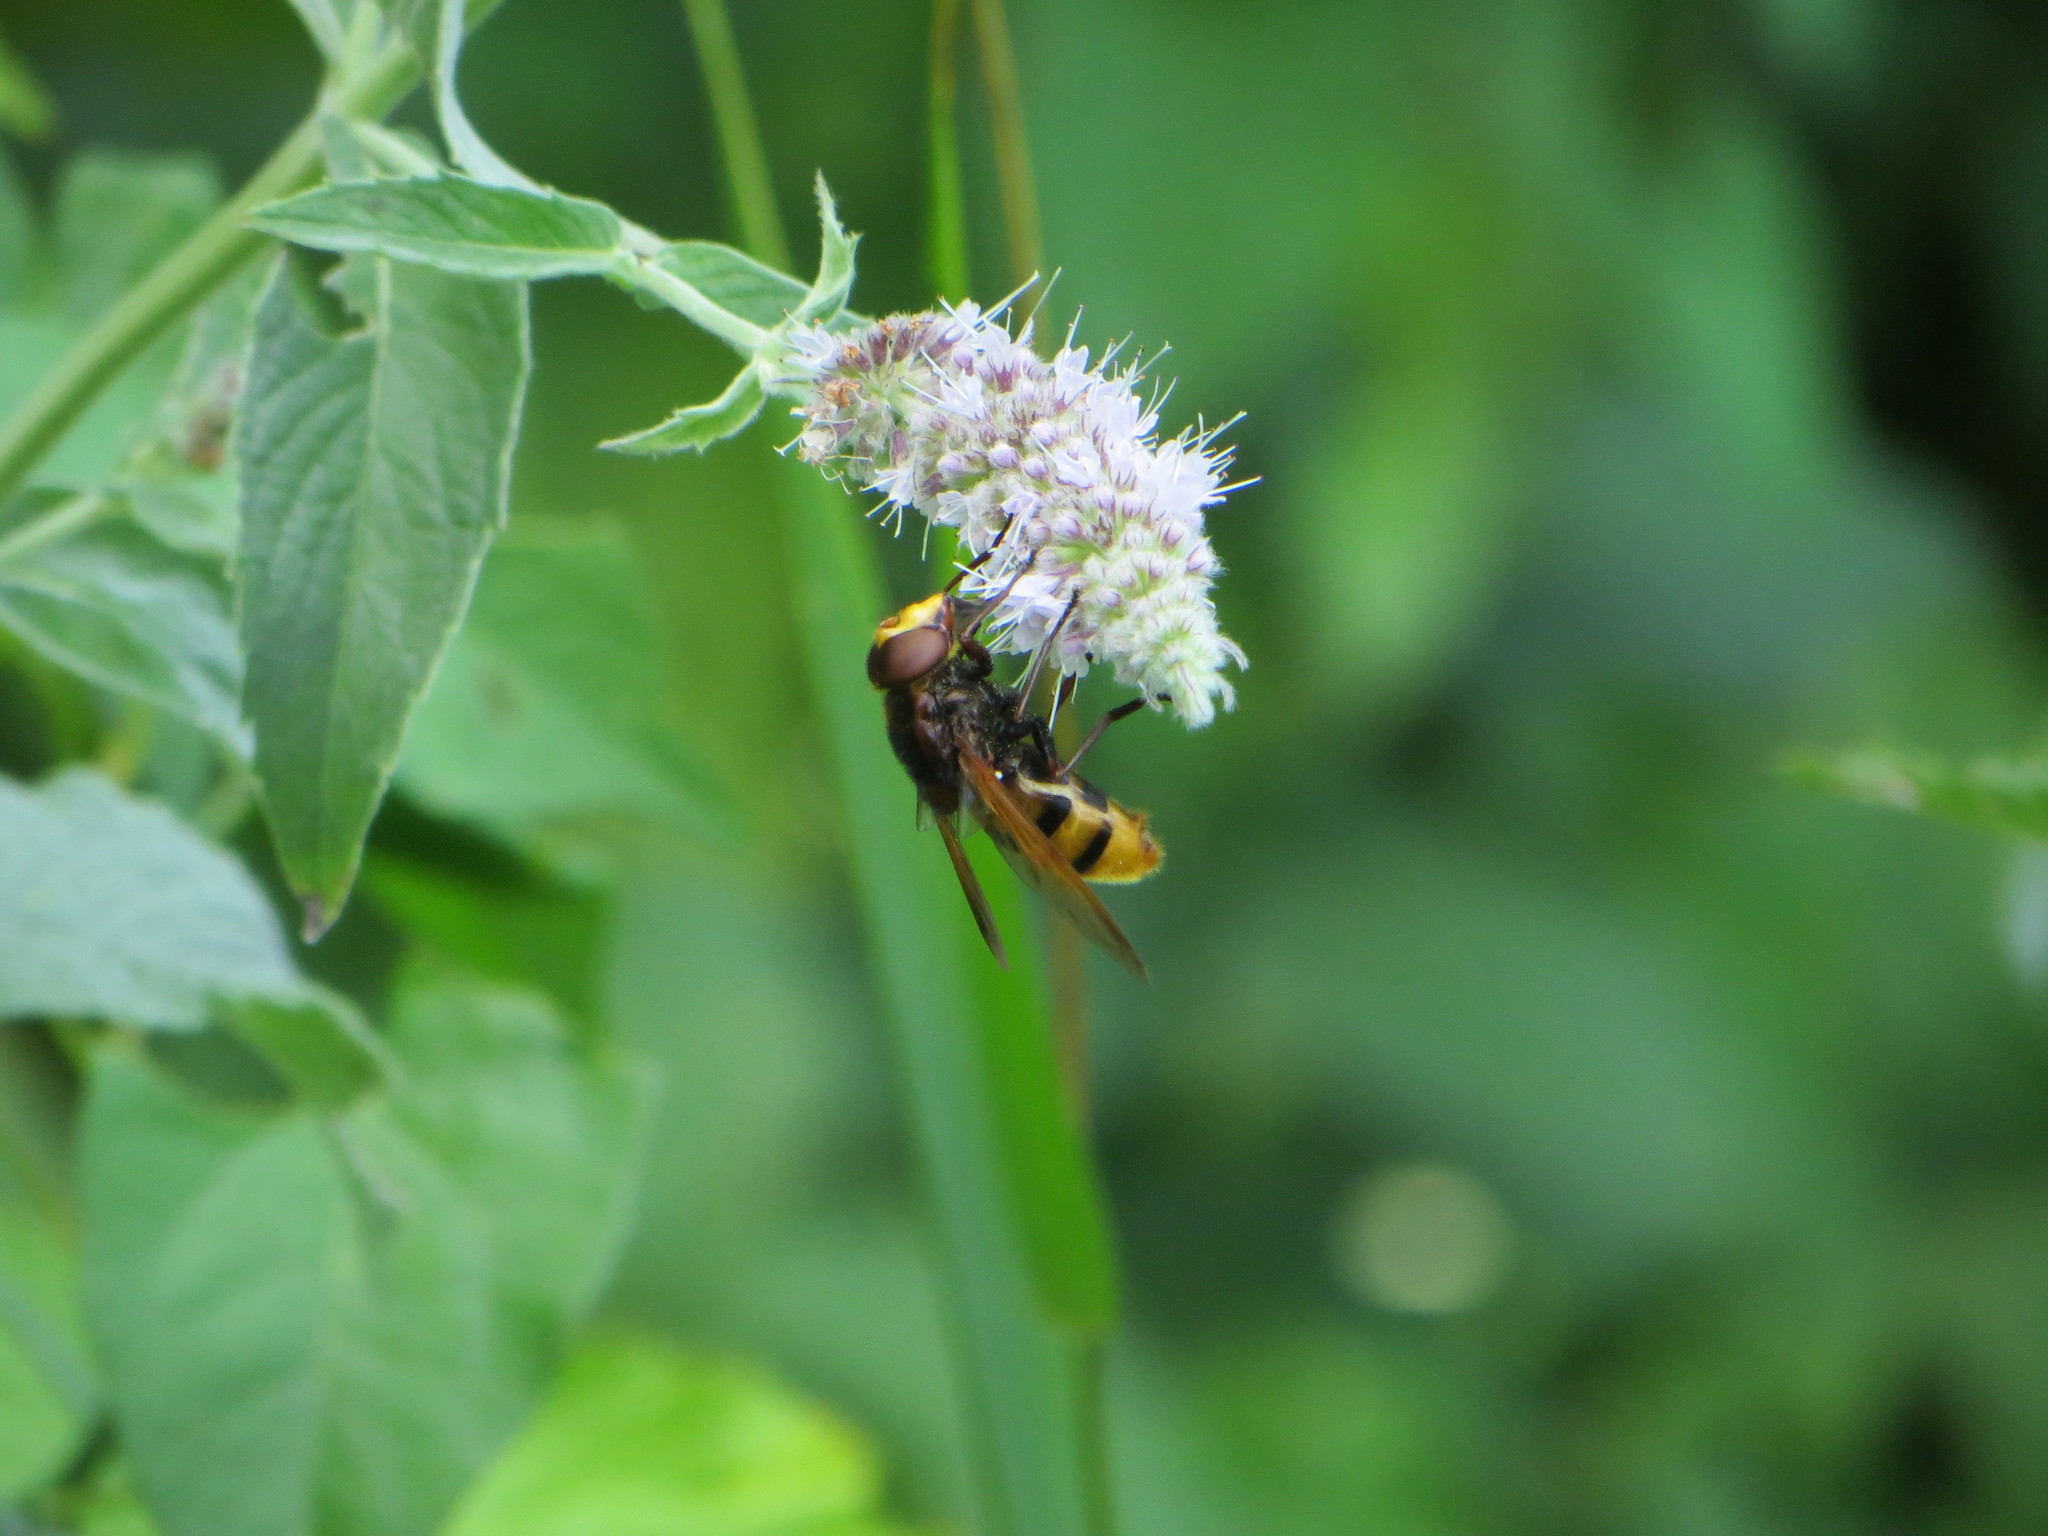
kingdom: Animalia
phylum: Arthropoda
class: Insecta
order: Diptera
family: Syrphidae
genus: Volucella
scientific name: Volucella zonaria
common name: Hornet hoverfly
